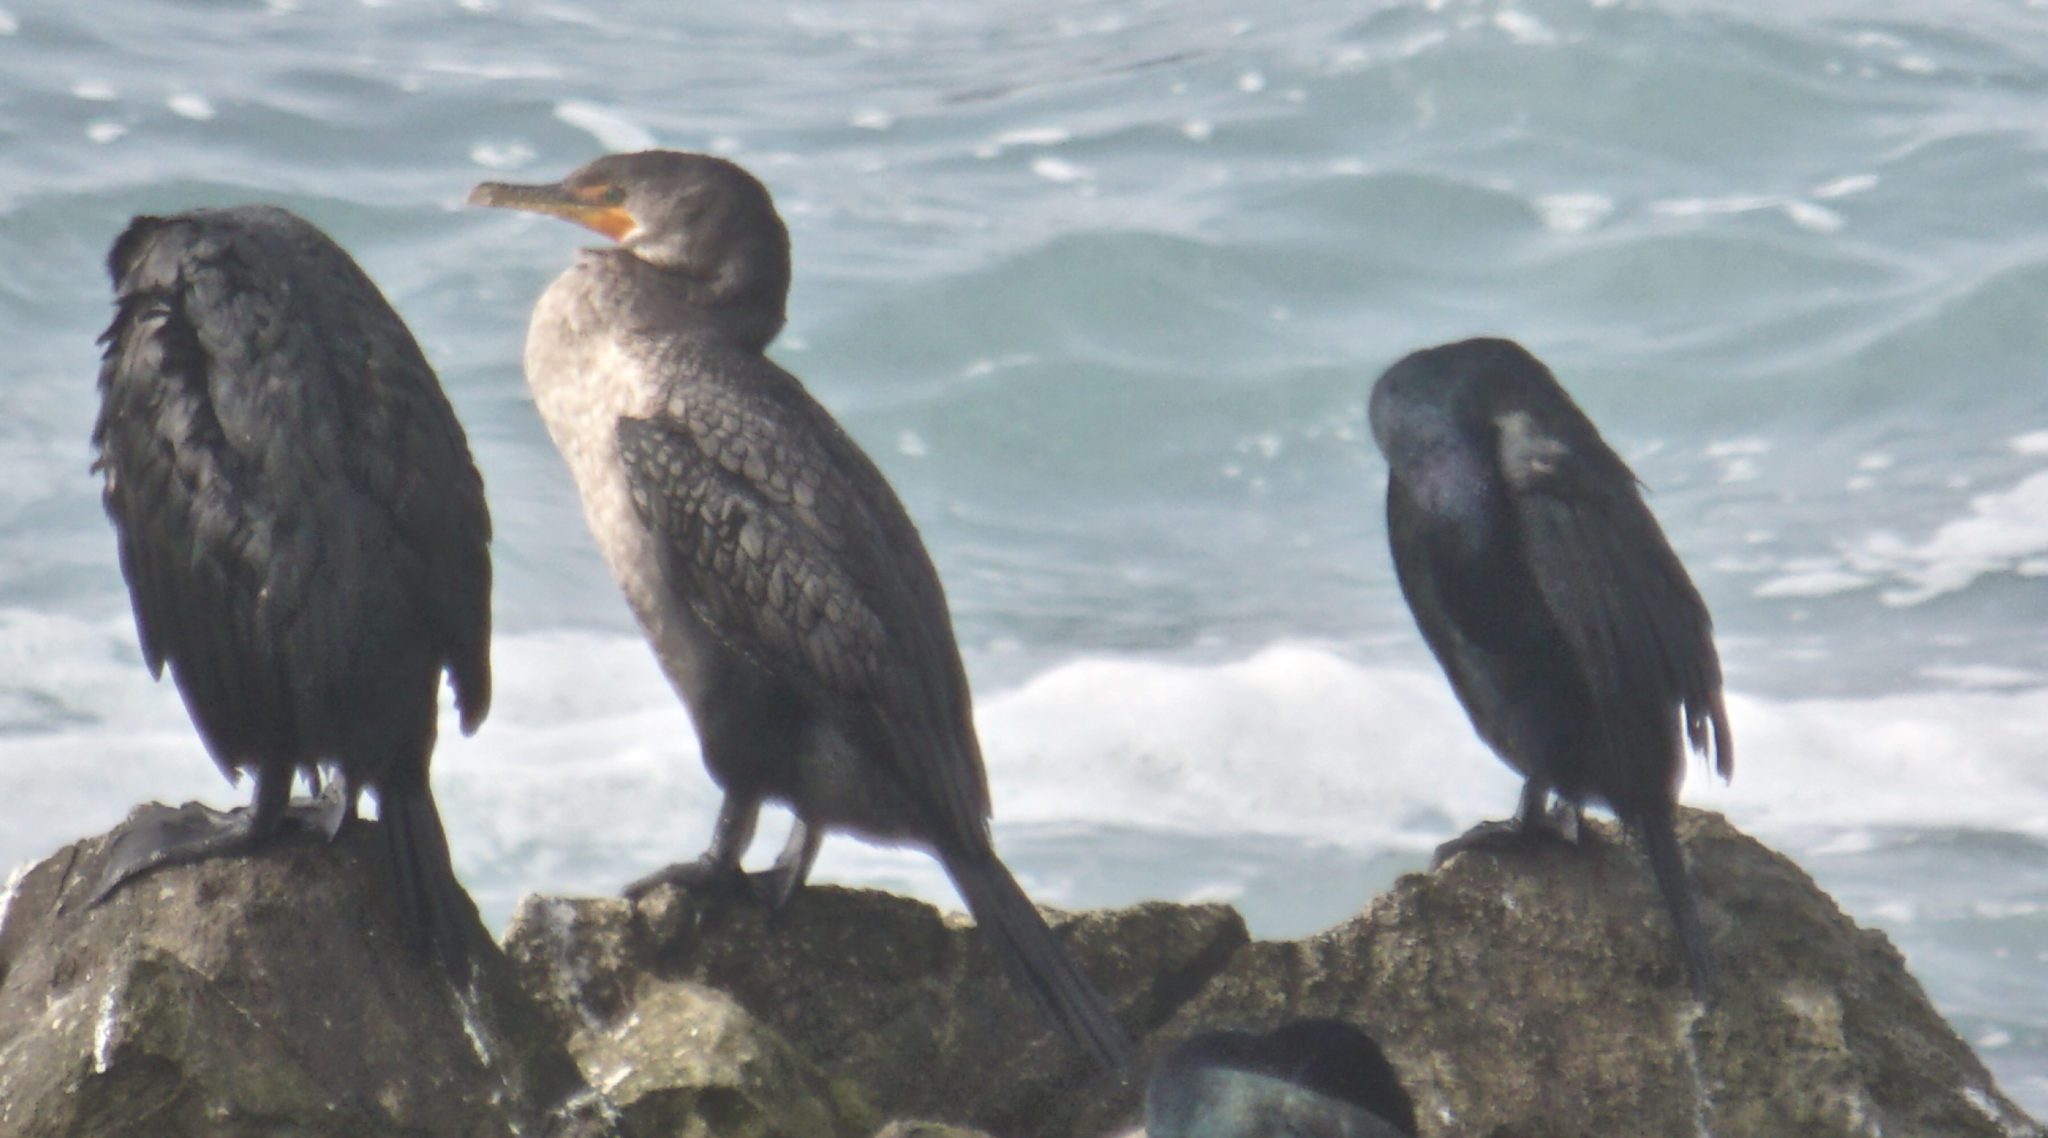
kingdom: Animalia
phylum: Chordata
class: Aves
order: Suliformes
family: Phalacrocoracidae
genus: Phalacrocorax
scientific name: Phalacrocorax auritus
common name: Double-crested cormorant
